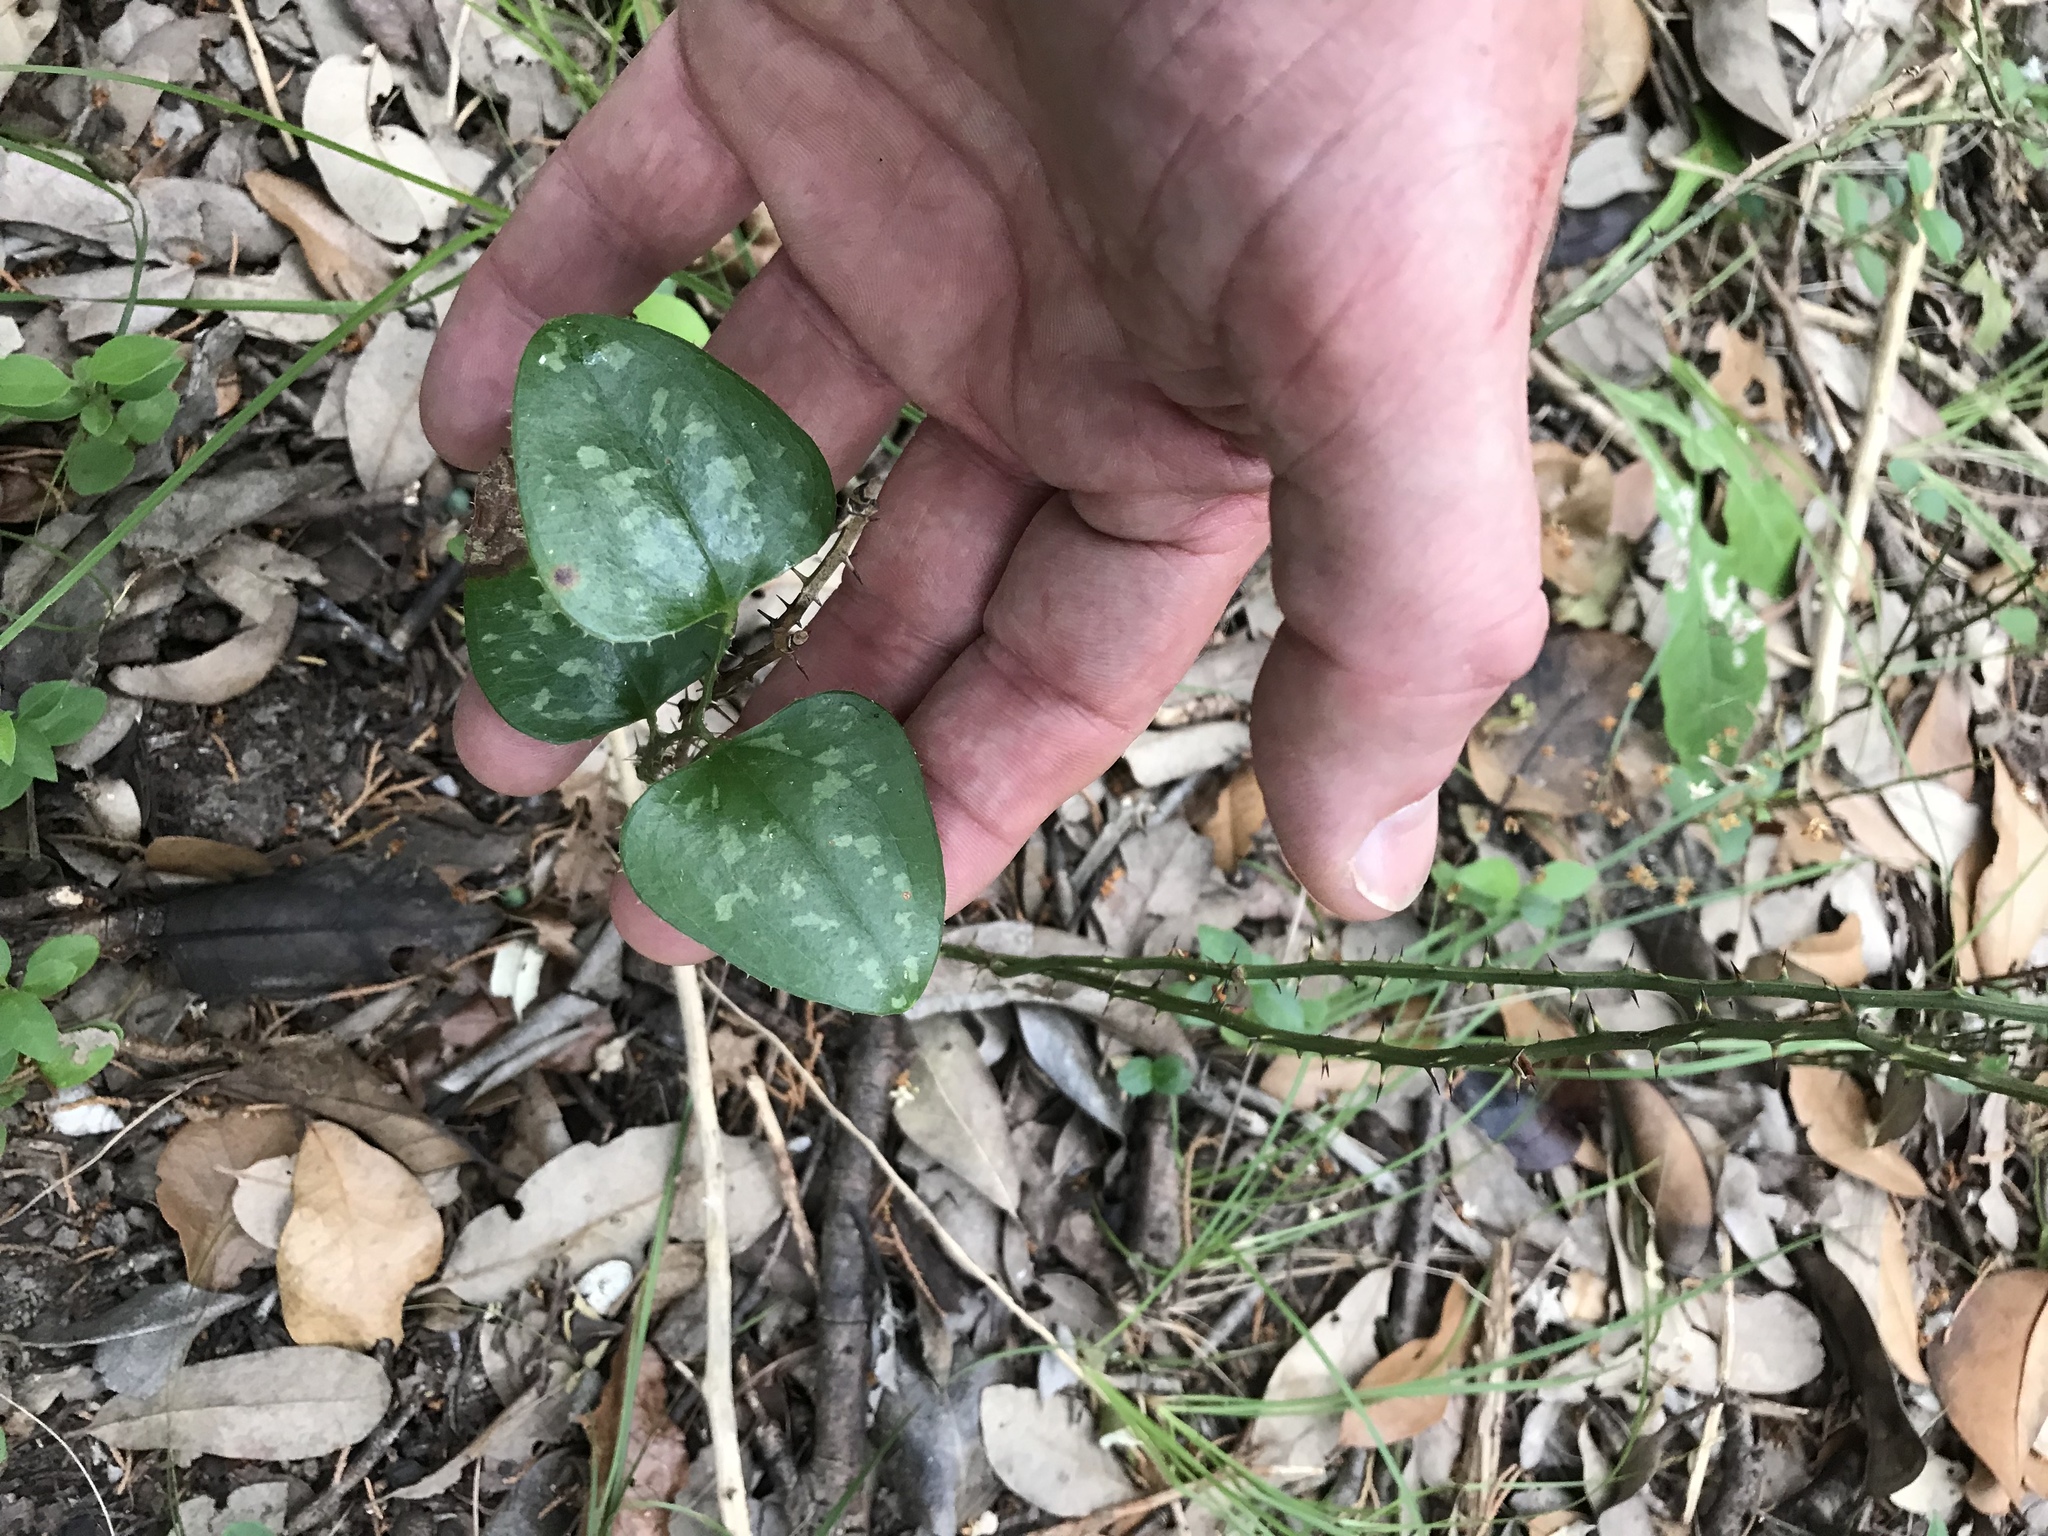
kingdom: Plantae
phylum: Tracheophyta
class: Liliopsida
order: Liliales
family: Smilacaceae
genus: Smilax
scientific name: Smilax bona-nox
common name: Catbrier
